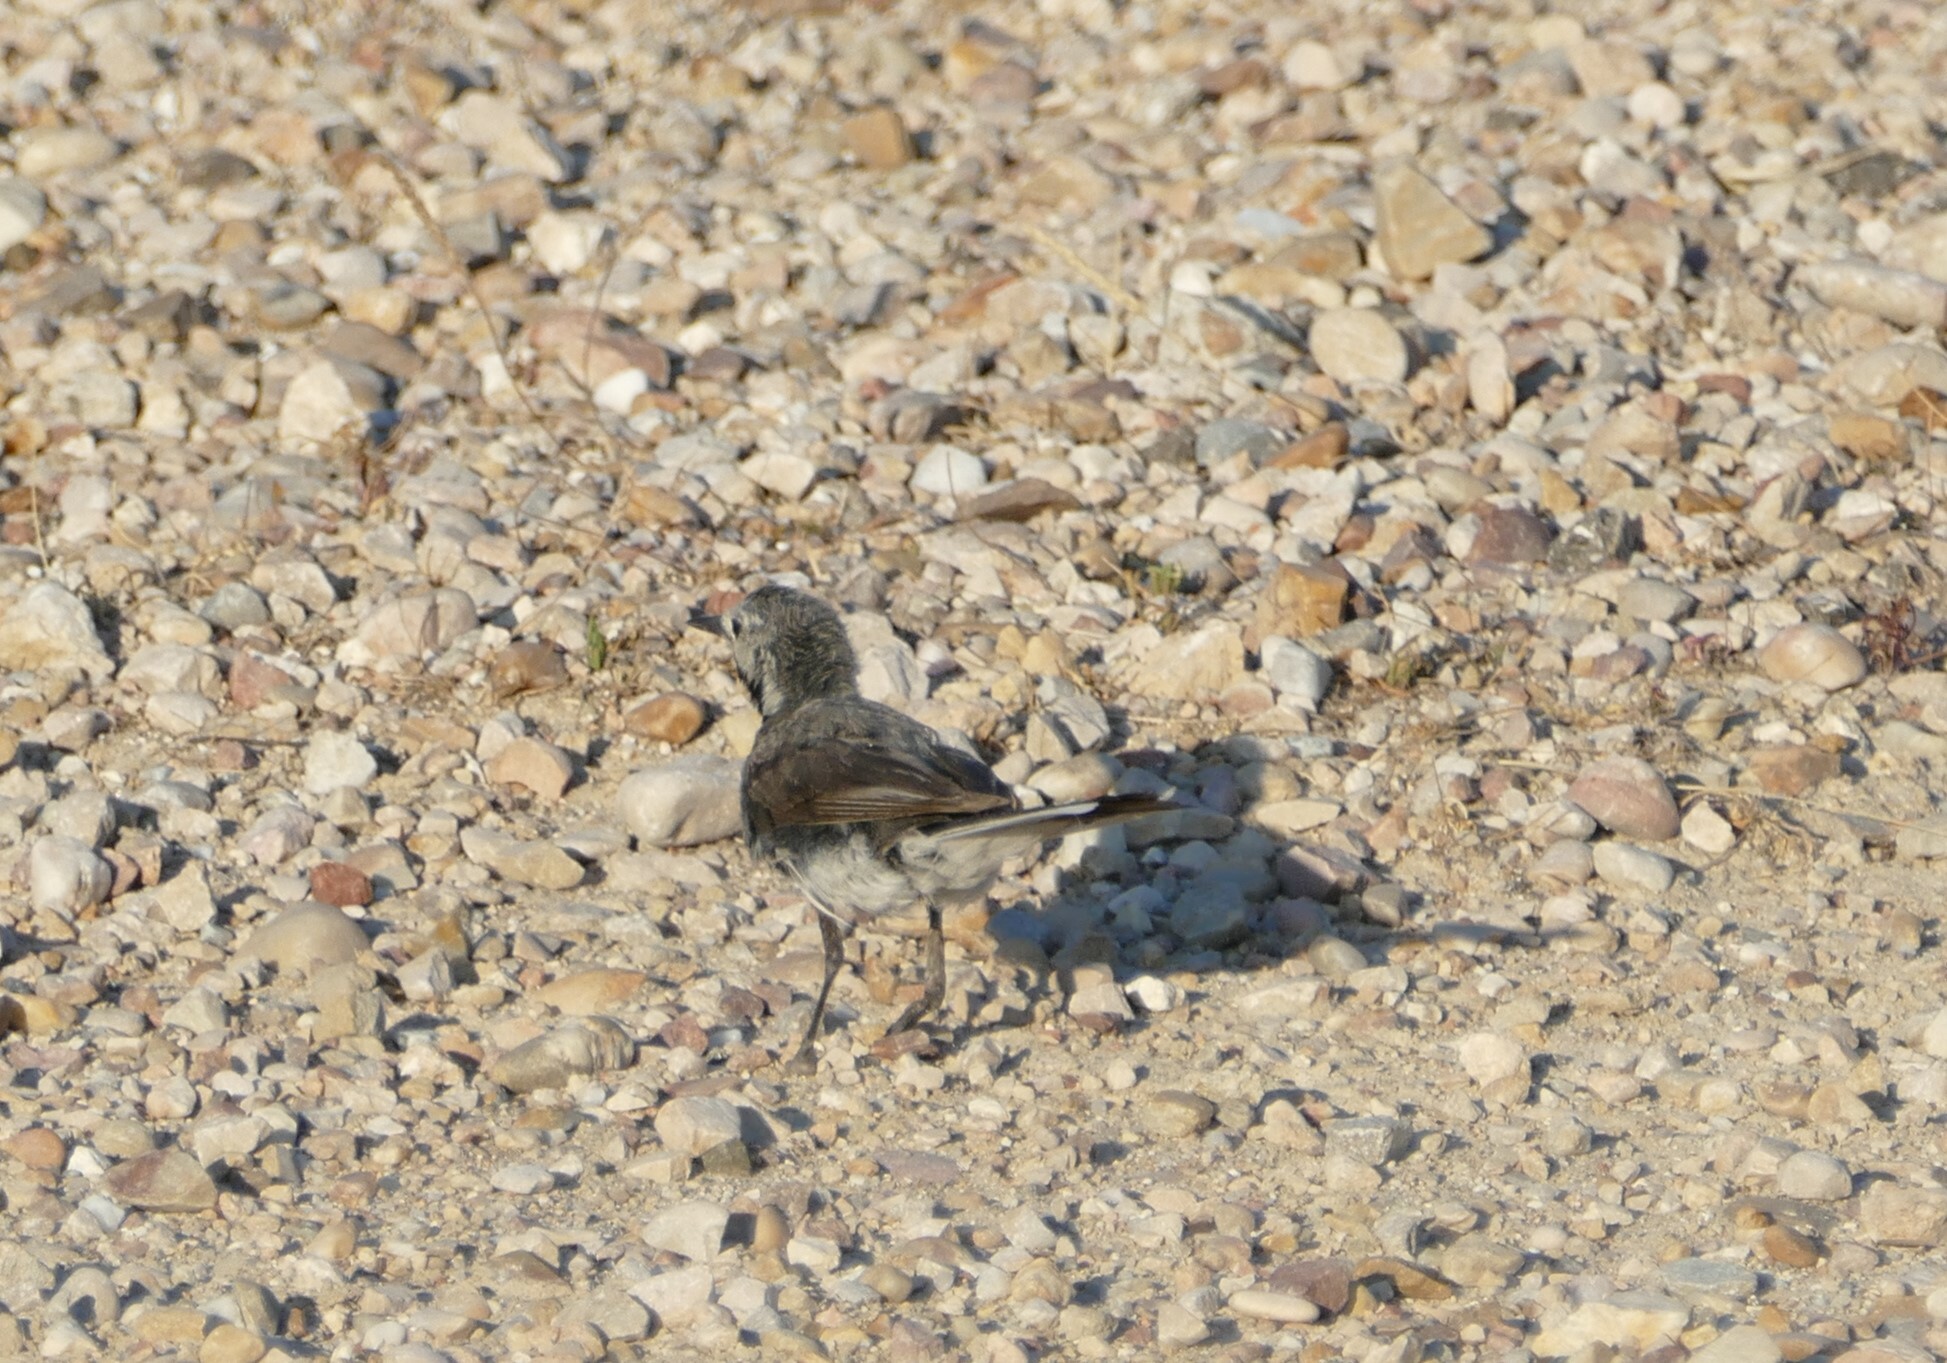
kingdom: Animalia
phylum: Chordata
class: Aves
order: Passeriformes
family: Motacillidae
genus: Motacilla
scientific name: Motacilla alba
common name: White wagtail
